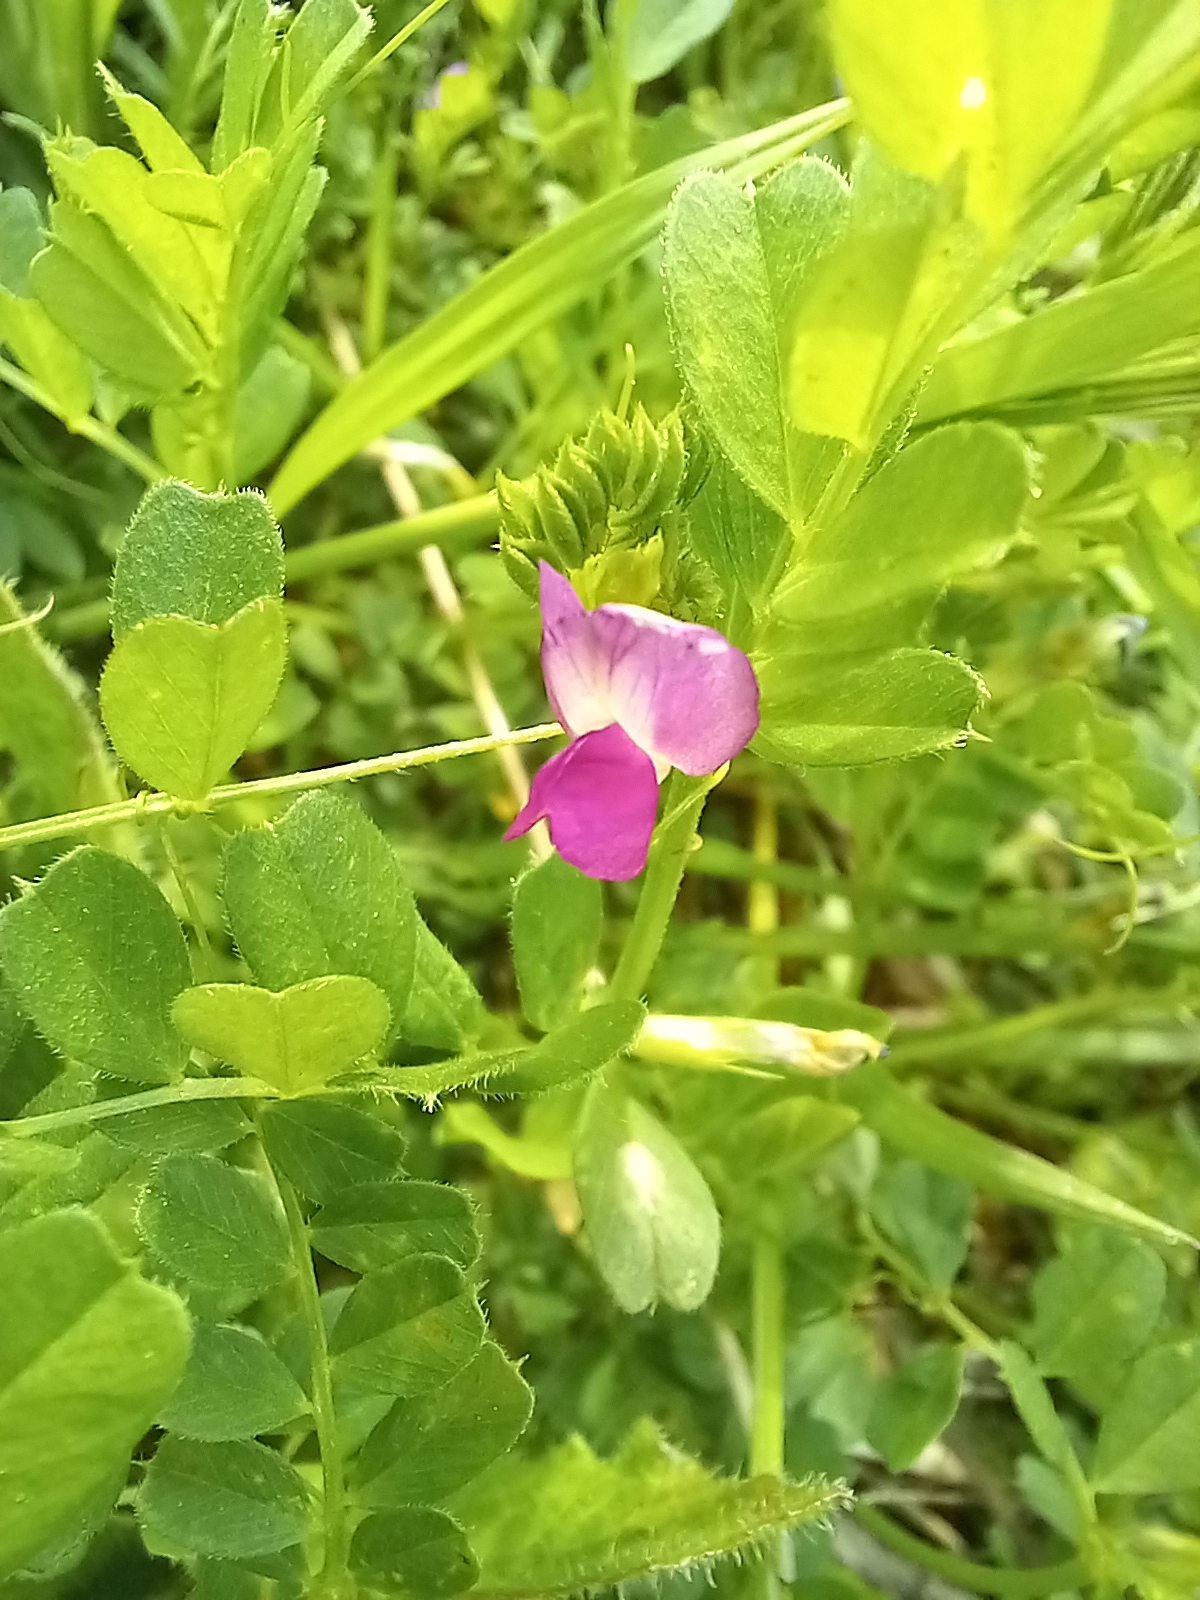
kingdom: Plantae
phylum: Tracheophyta
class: Magnoliopsida
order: Fabales
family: Fabaceae
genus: Vicia
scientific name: Vicia sativa
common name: Garden vetch
